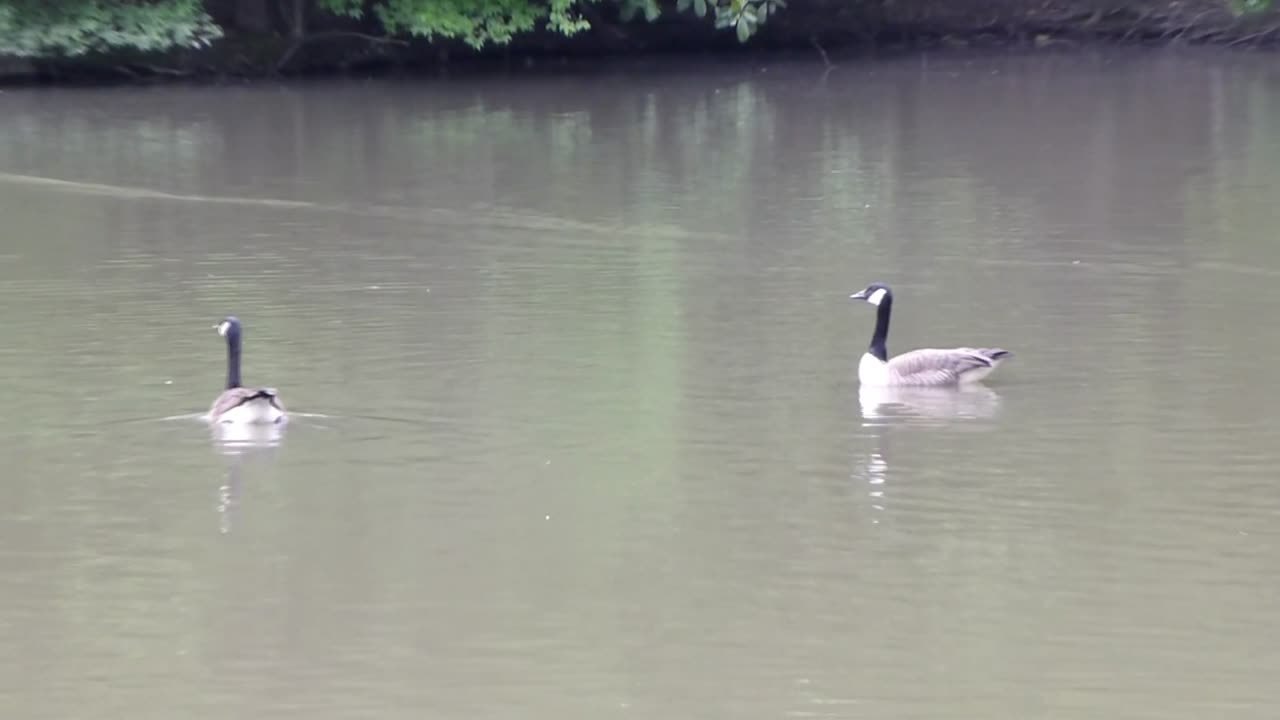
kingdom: Animalia
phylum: Chordata
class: Aves
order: Anseriformes
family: Anatidae
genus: Branta
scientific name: Branta canadensis
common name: Canada goose
